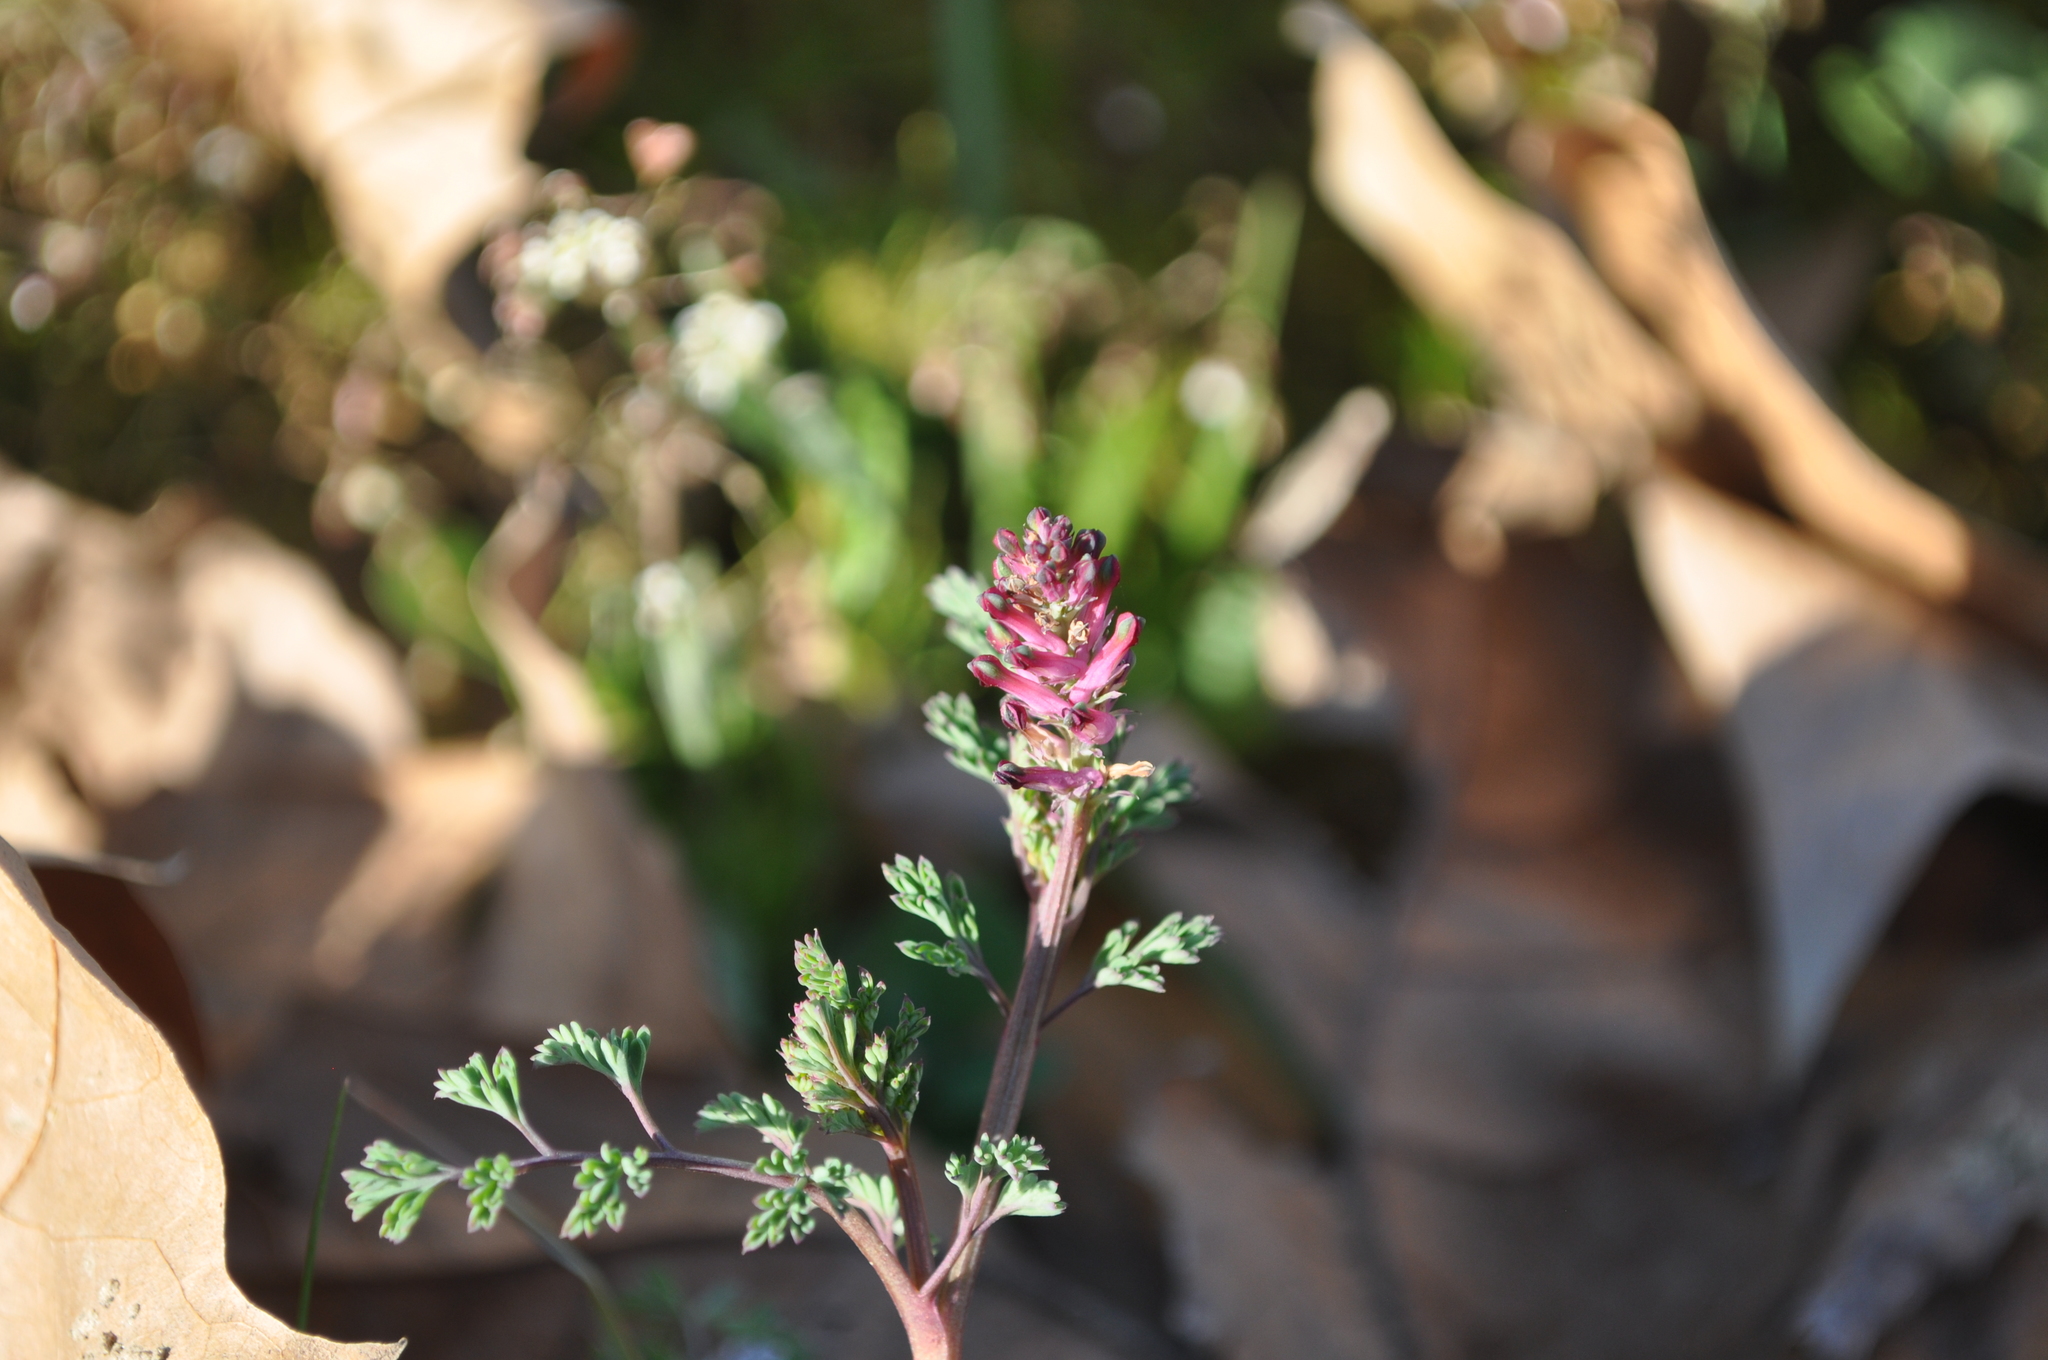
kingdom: Plantae
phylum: Tracheophyta
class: Magnoliopsida
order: Ranunculales
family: Papaveraceae
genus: Fumaria
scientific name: Fumaria officinalis
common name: Common fumitory
